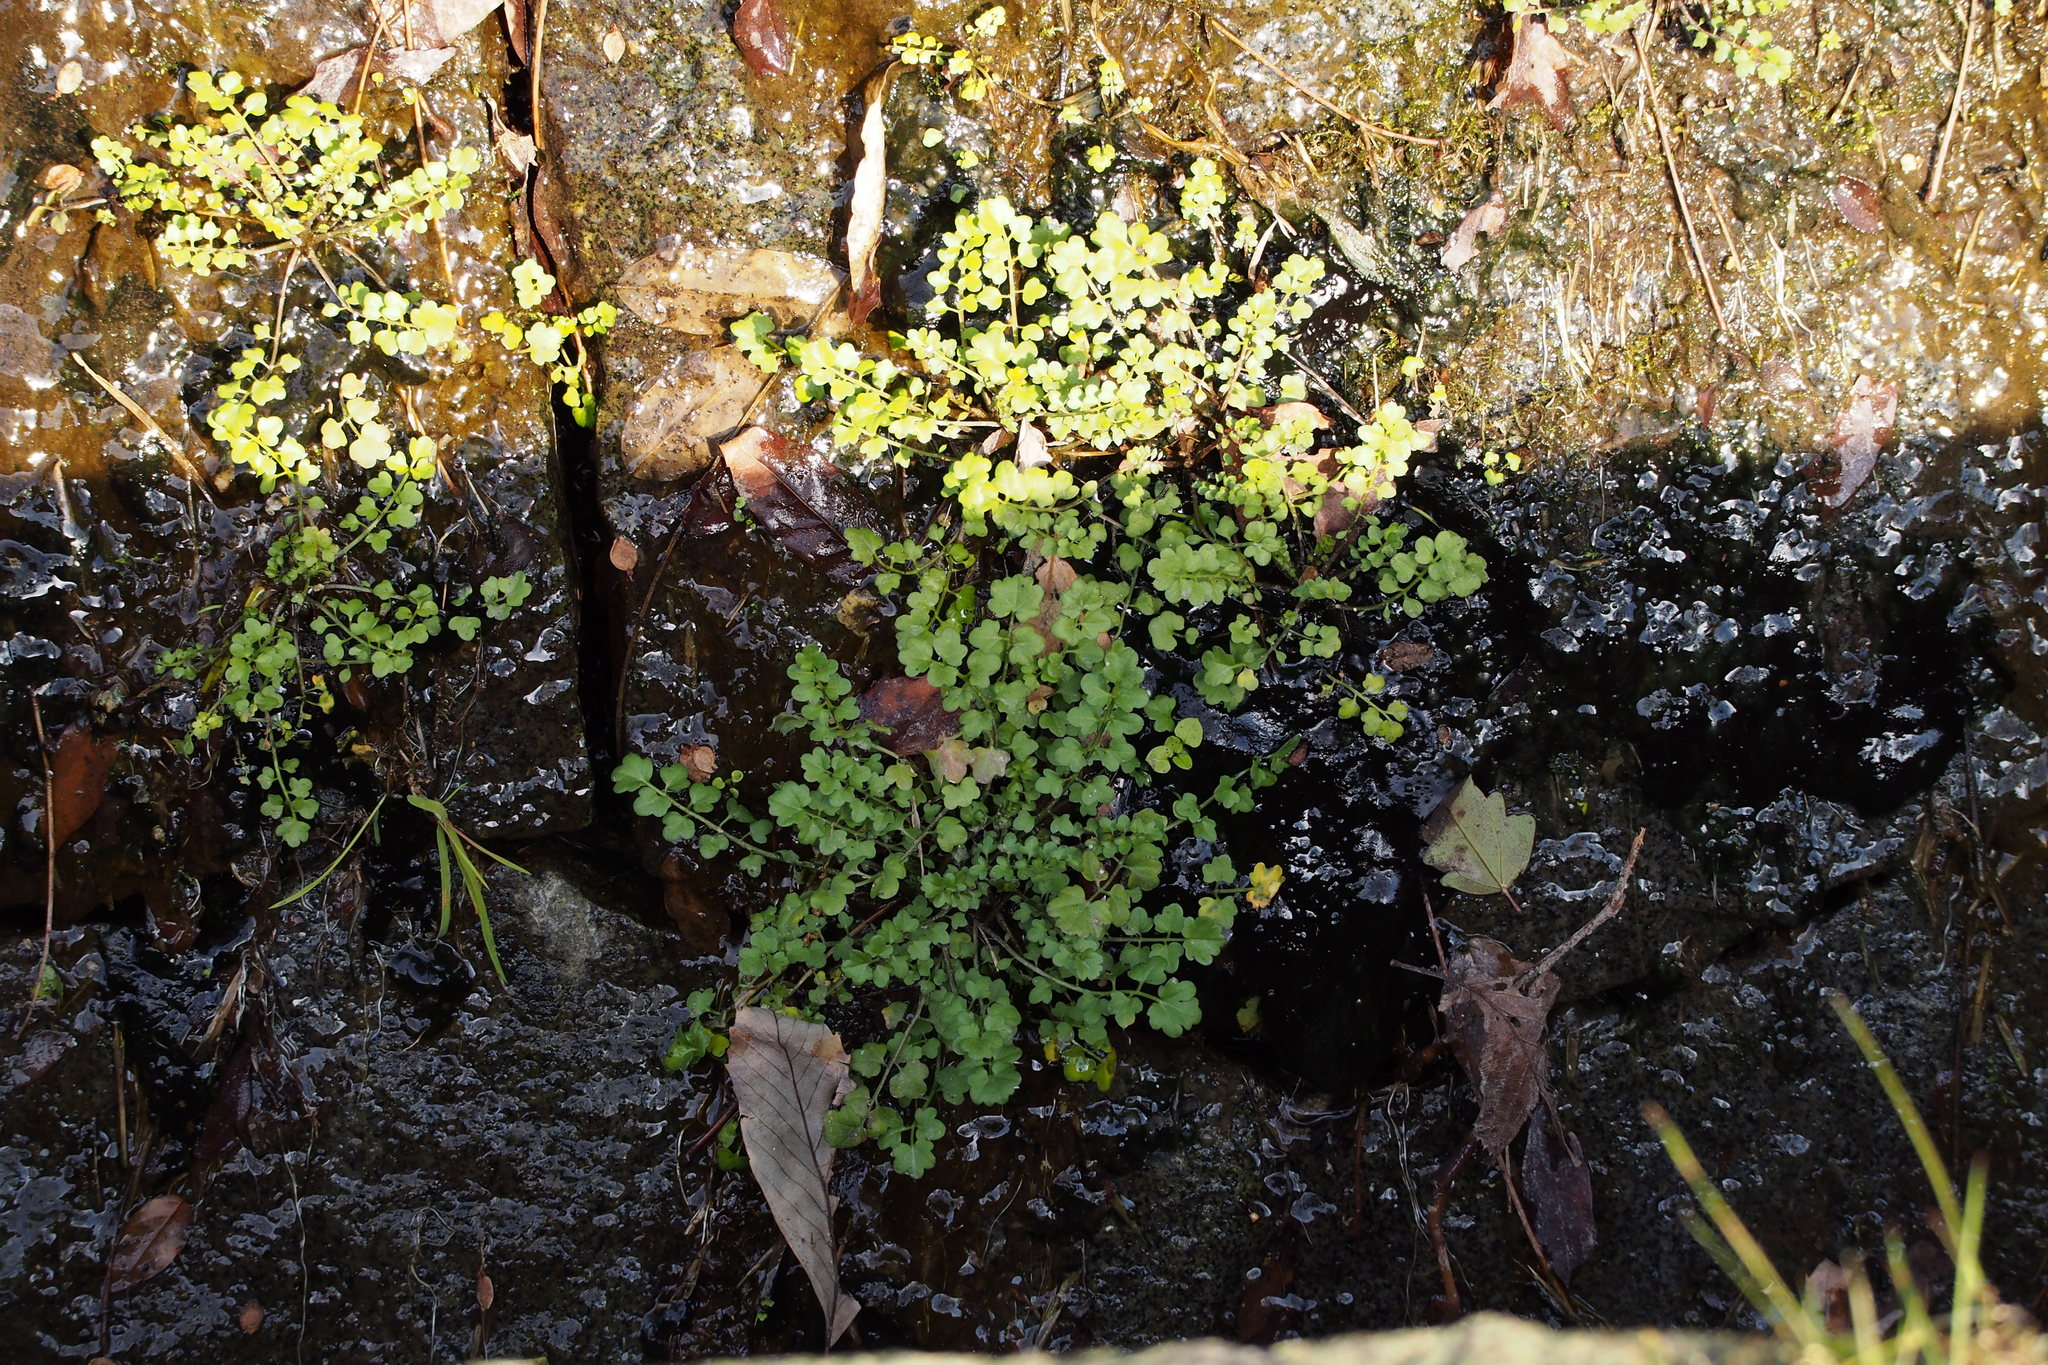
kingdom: Plantae
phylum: Tracheophyta
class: Magnoliopsida
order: Brassicales
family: Brassicaceae
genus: Cardamine
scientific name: Cardamine occulta
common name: Asian wavy bittercress
